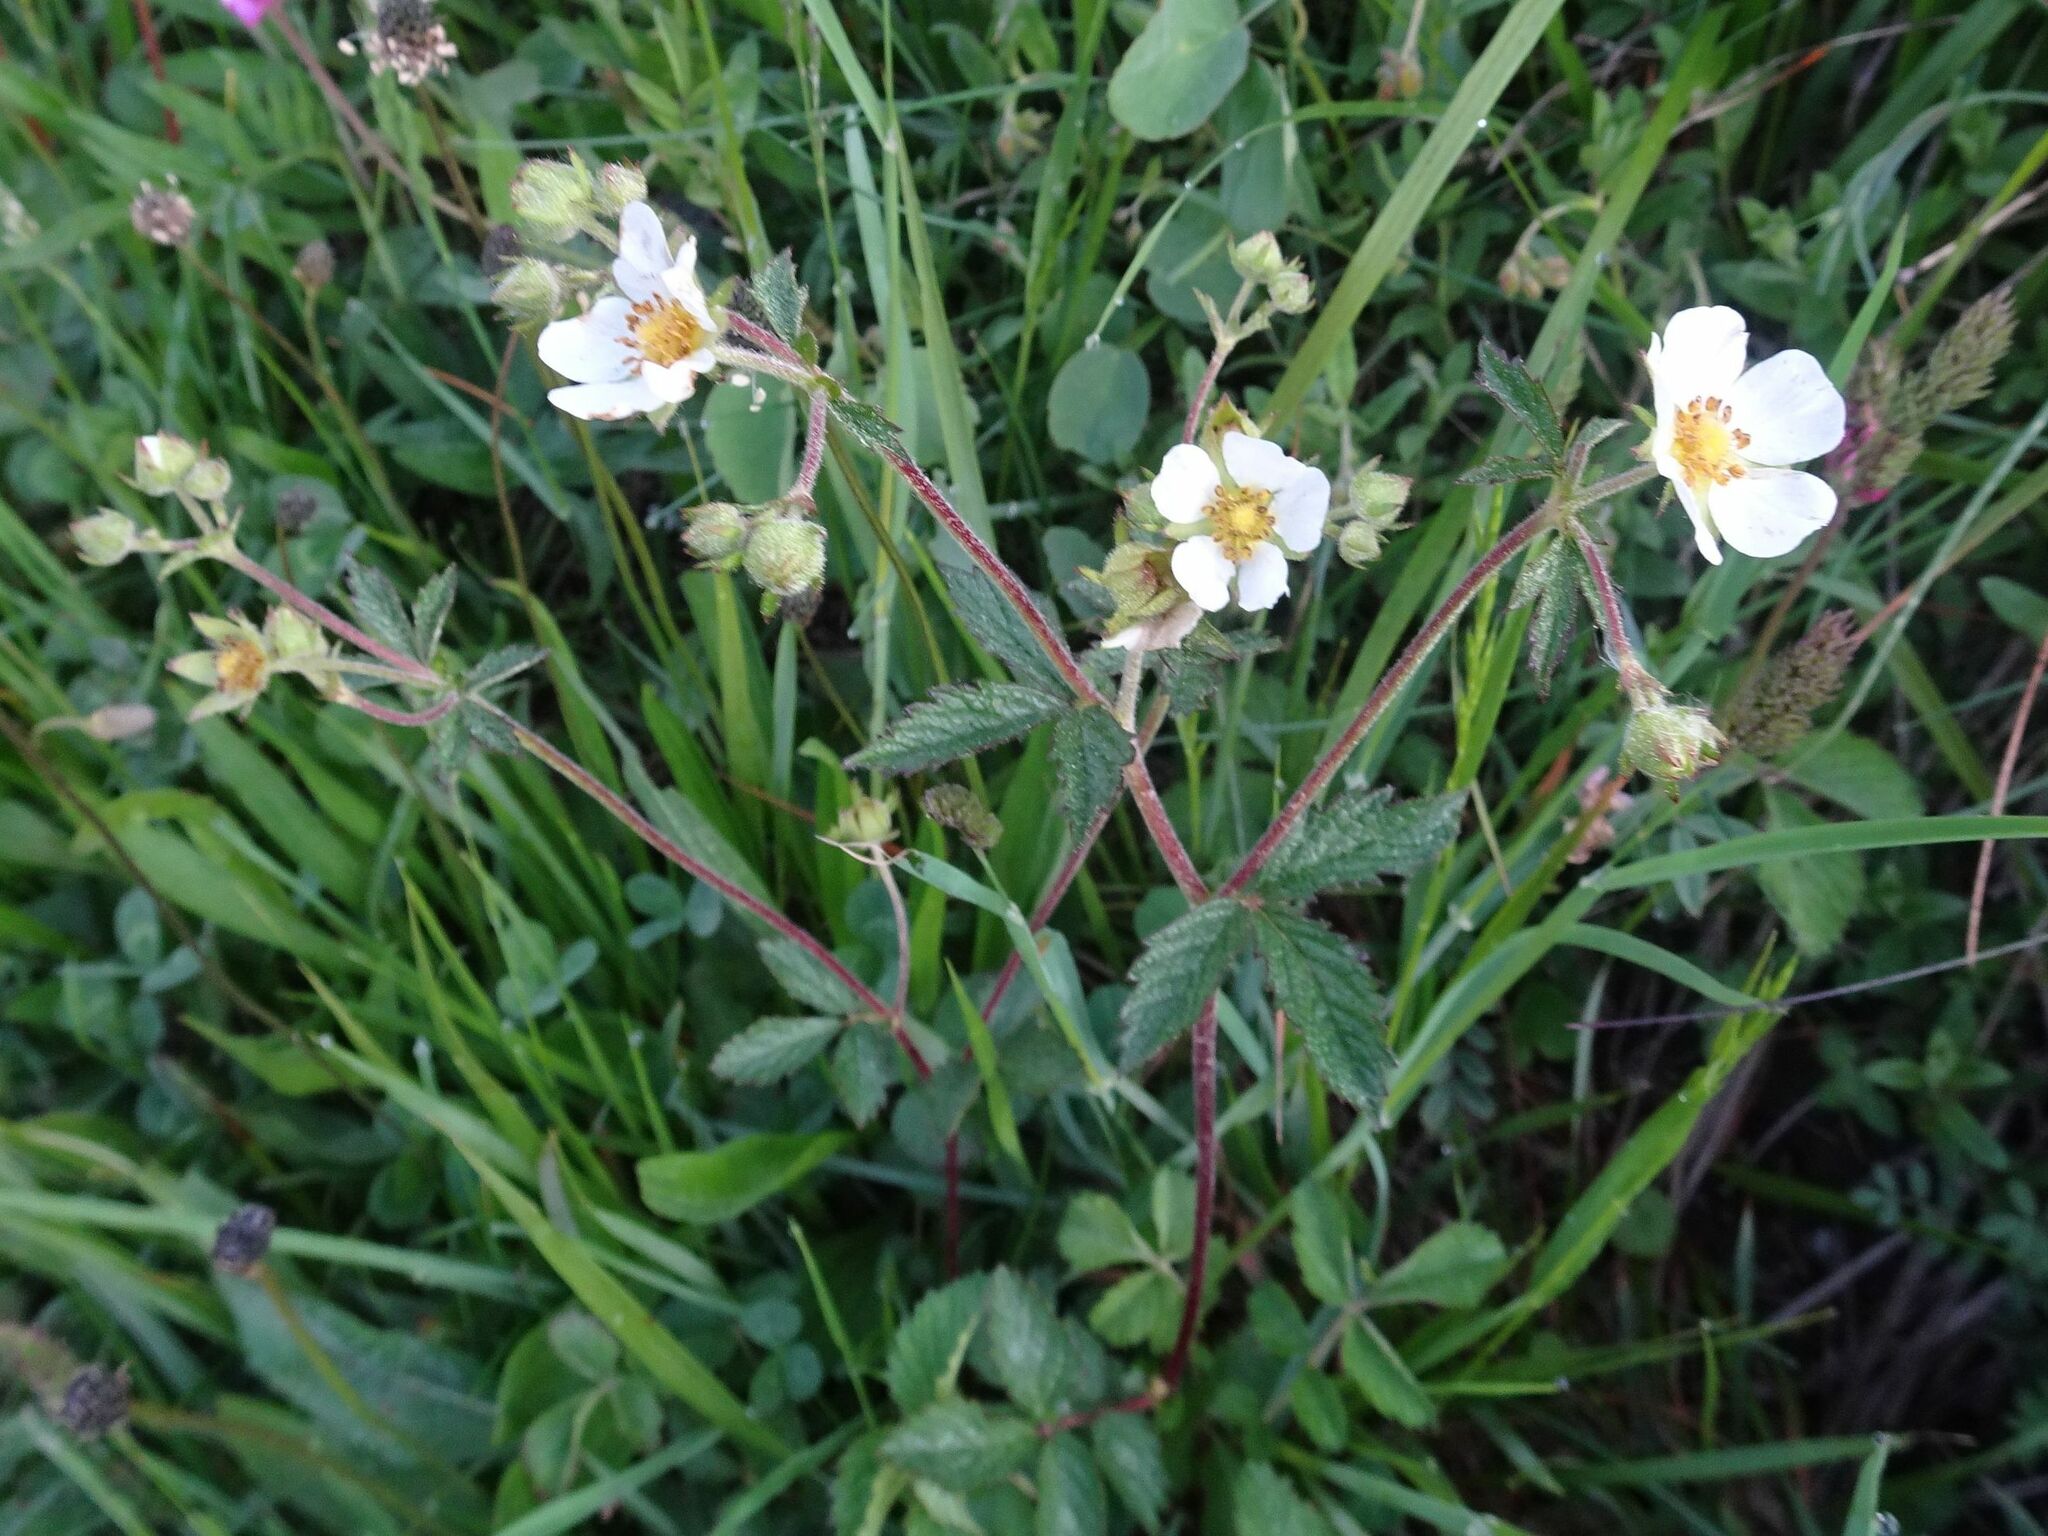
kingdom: Plantae
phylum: Tracheophyta
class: Magnoliopsida
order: Rosales
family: Rosaceae
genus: Drymocallis
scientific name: Drymocallis rupestris
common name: Rock cinquefoil
